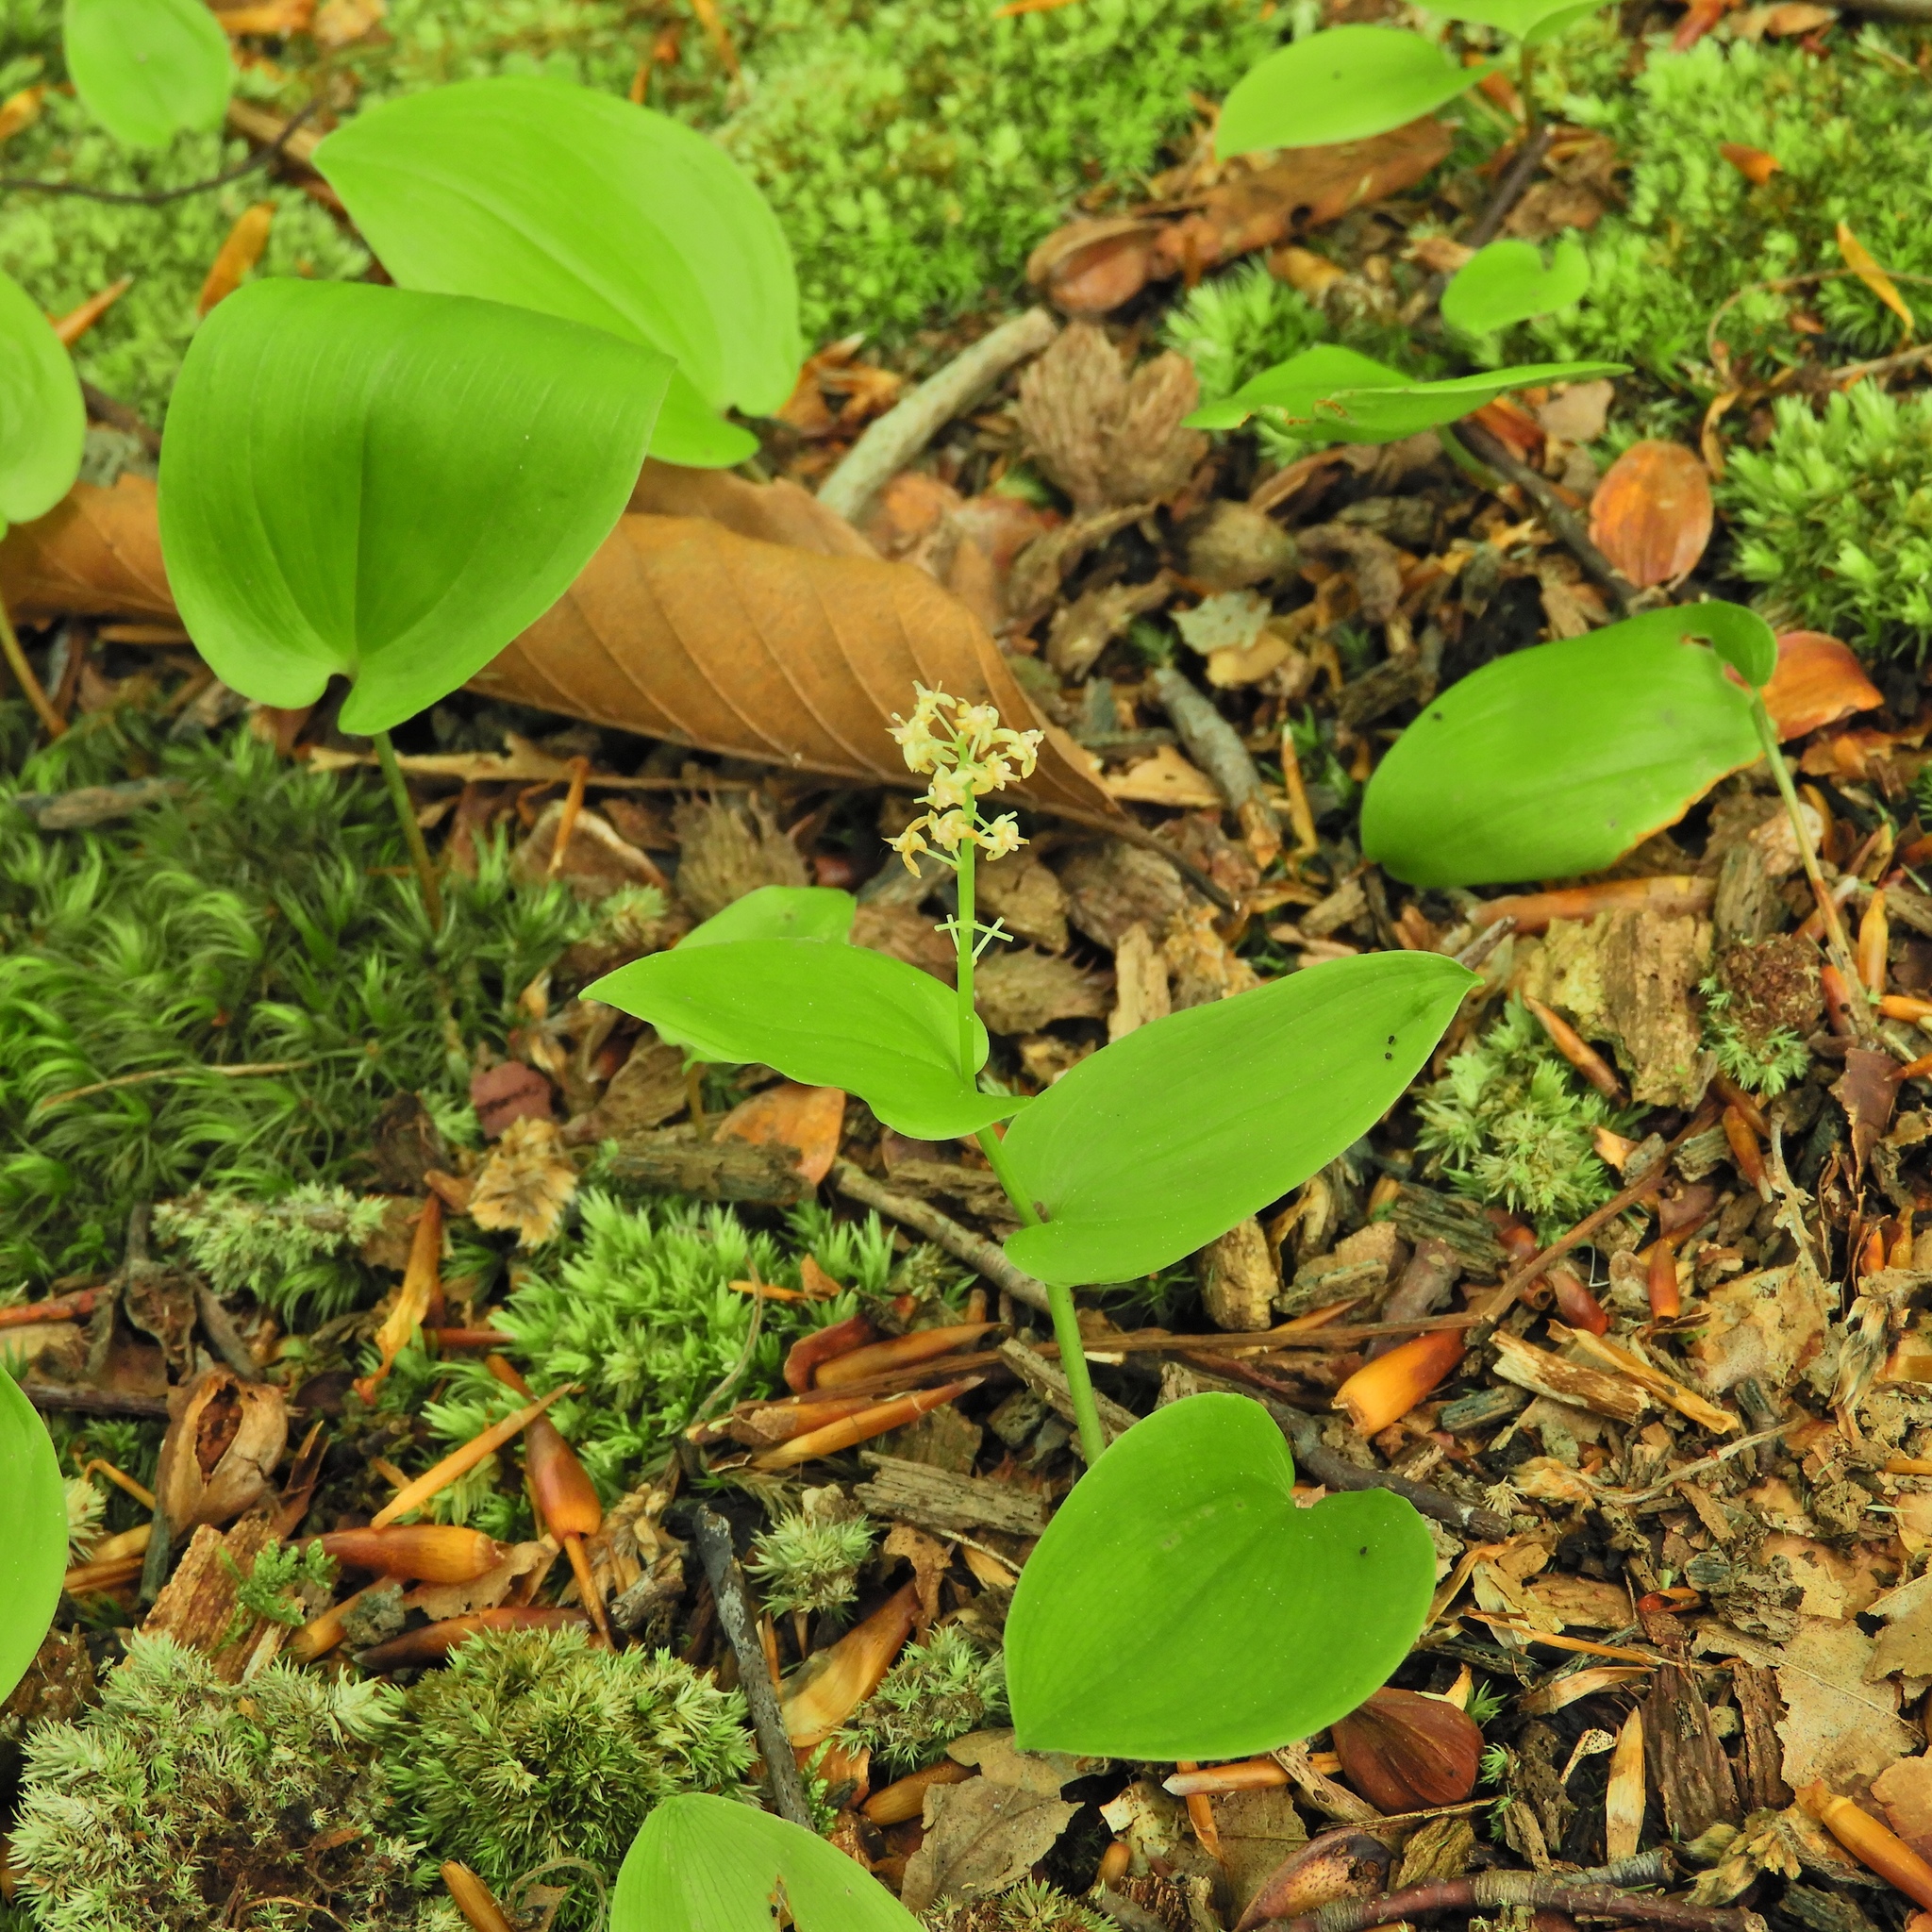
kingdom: Plantae
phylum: Tracheophyta
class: Liliopsida
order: Asparagales
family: Asparagaceae
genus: Maianthemum
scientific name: Maianthemum canadense
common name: False lily-of-the-valley
